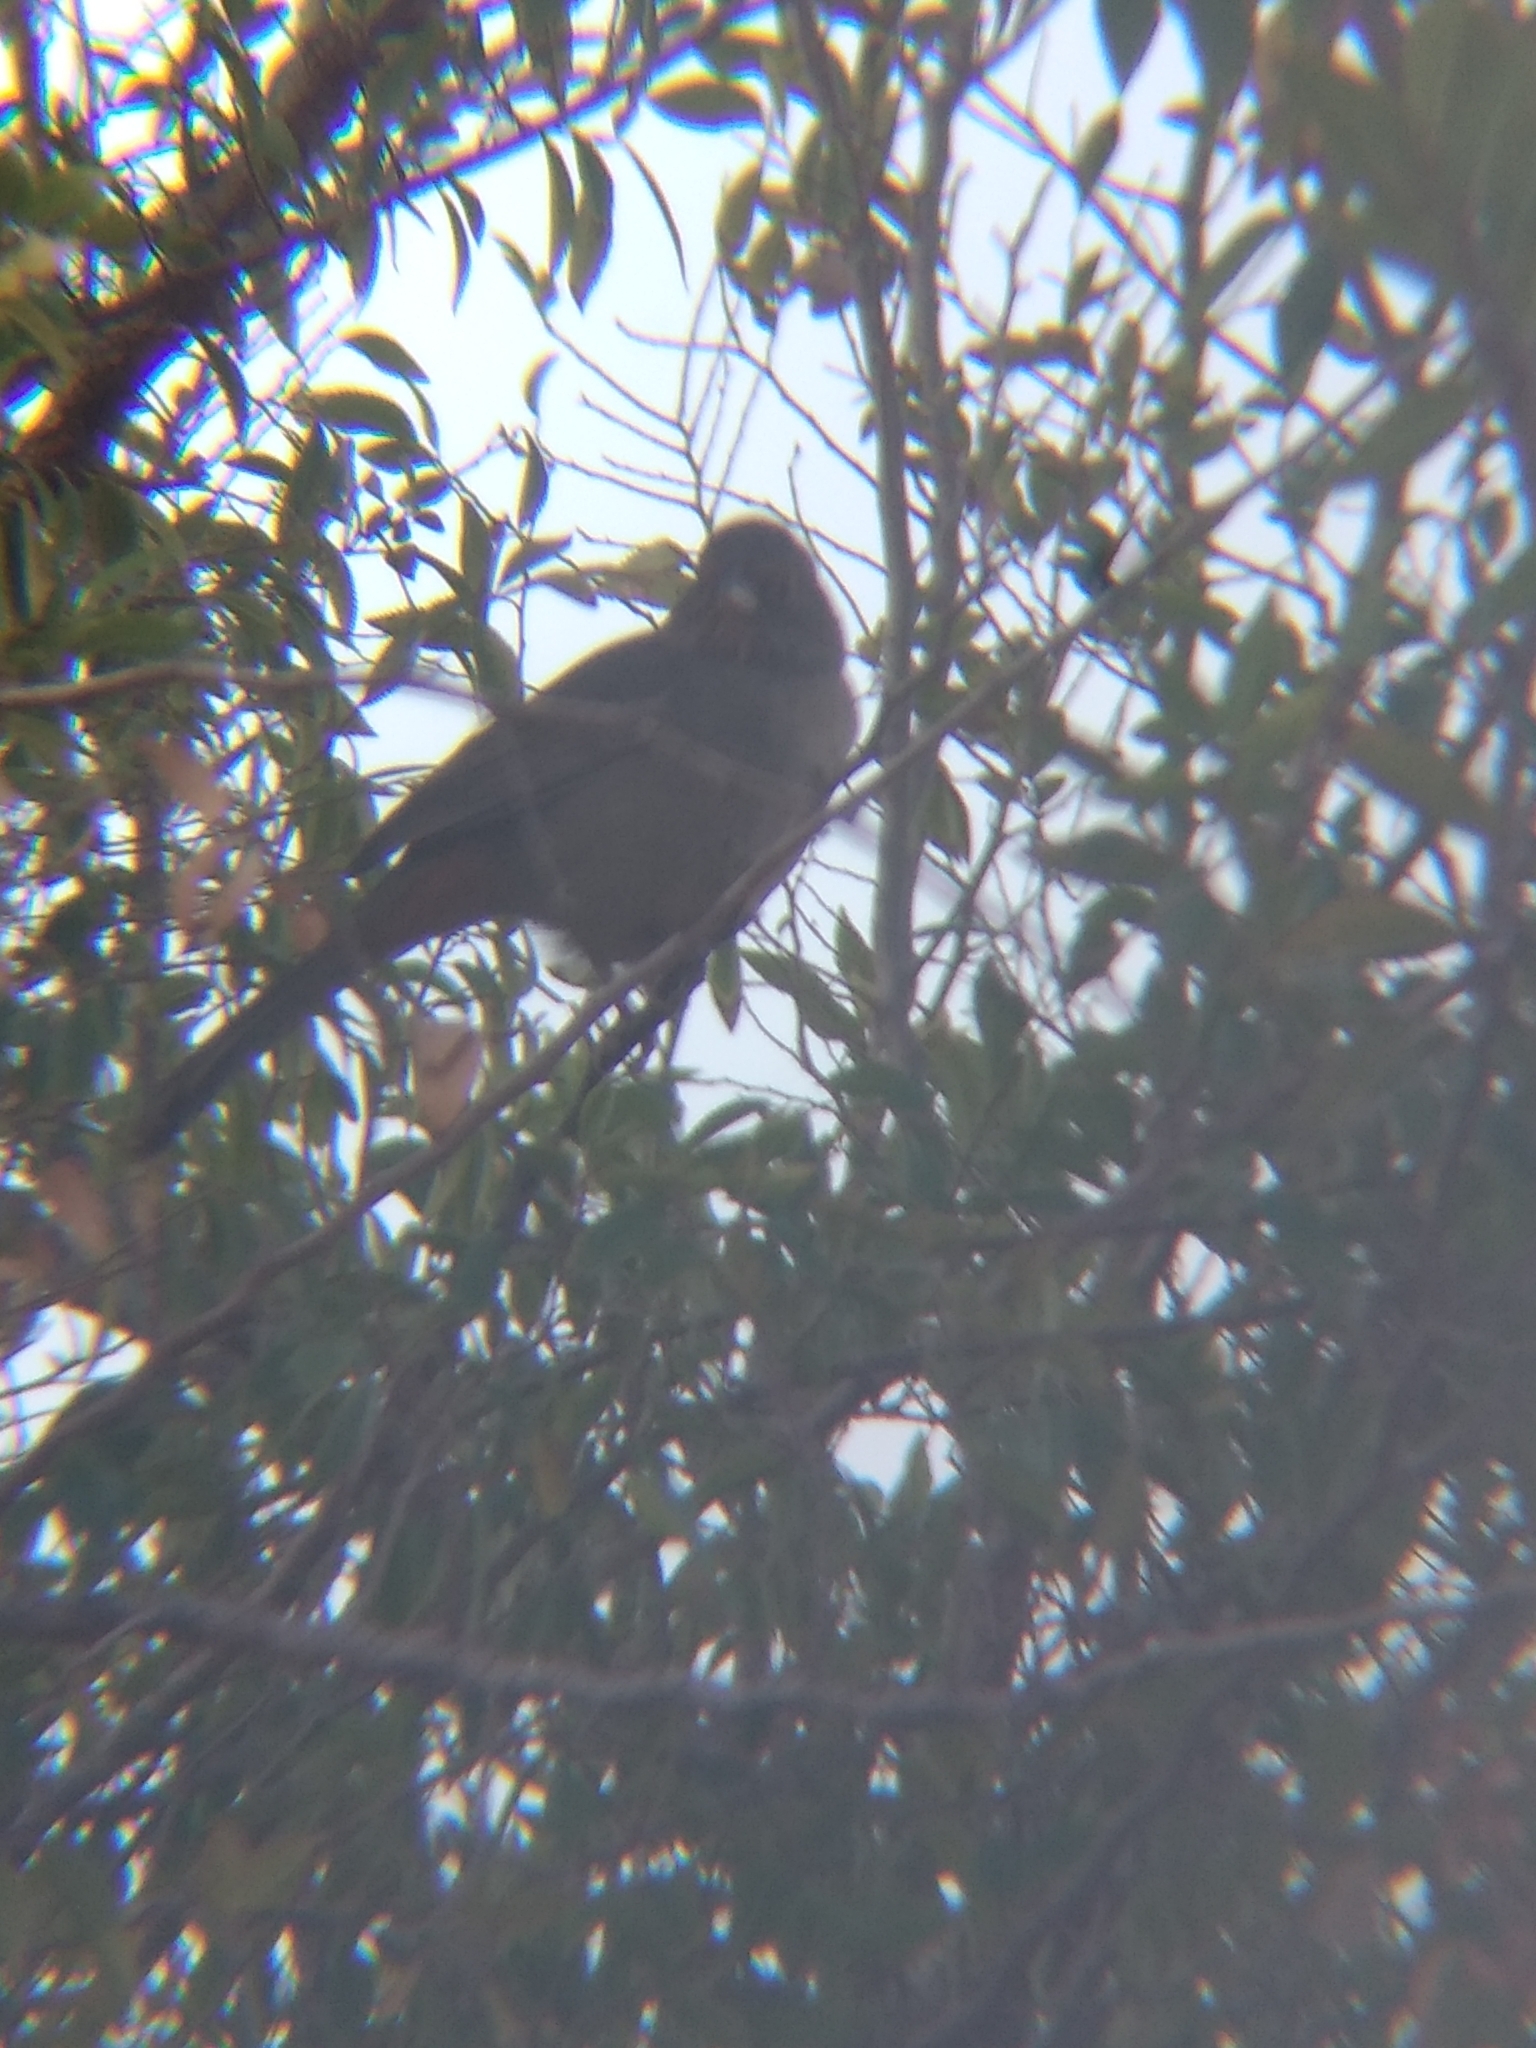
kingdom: Animalia
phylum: Chordata
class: Aves
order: Passeriformes
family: Passerellidae
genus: Melozone
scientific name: Melozone crissalis
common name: California towhee
